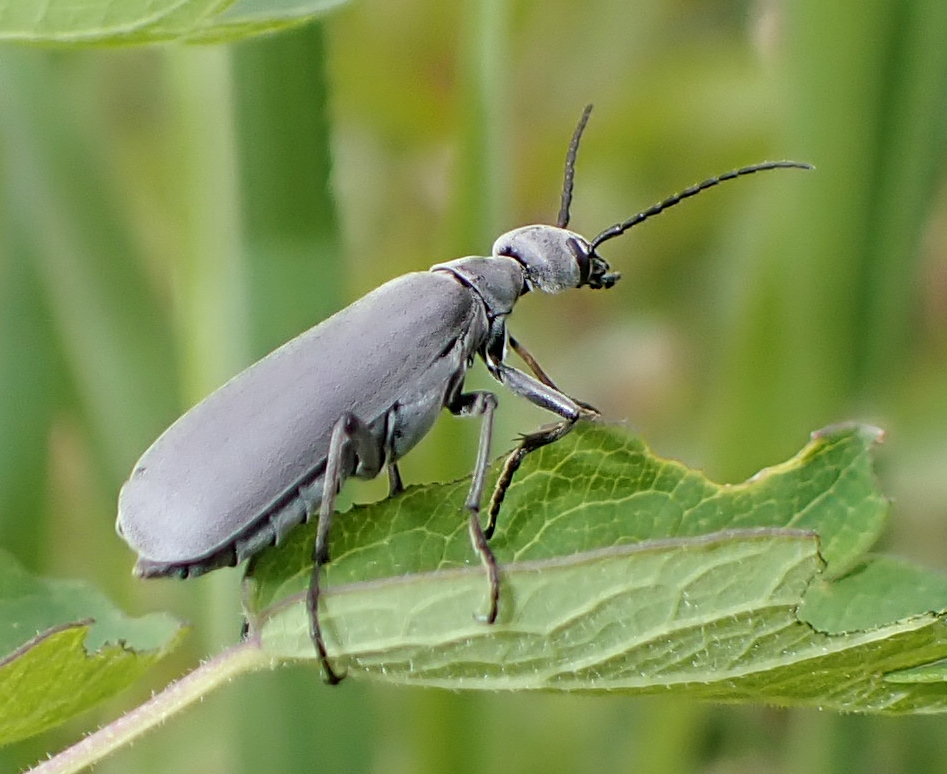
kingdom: Animalia
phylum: Arthropoda
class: Insecta
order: Coleoptera
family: Meloidae
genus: Epicauta
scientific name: Epicauta murina
